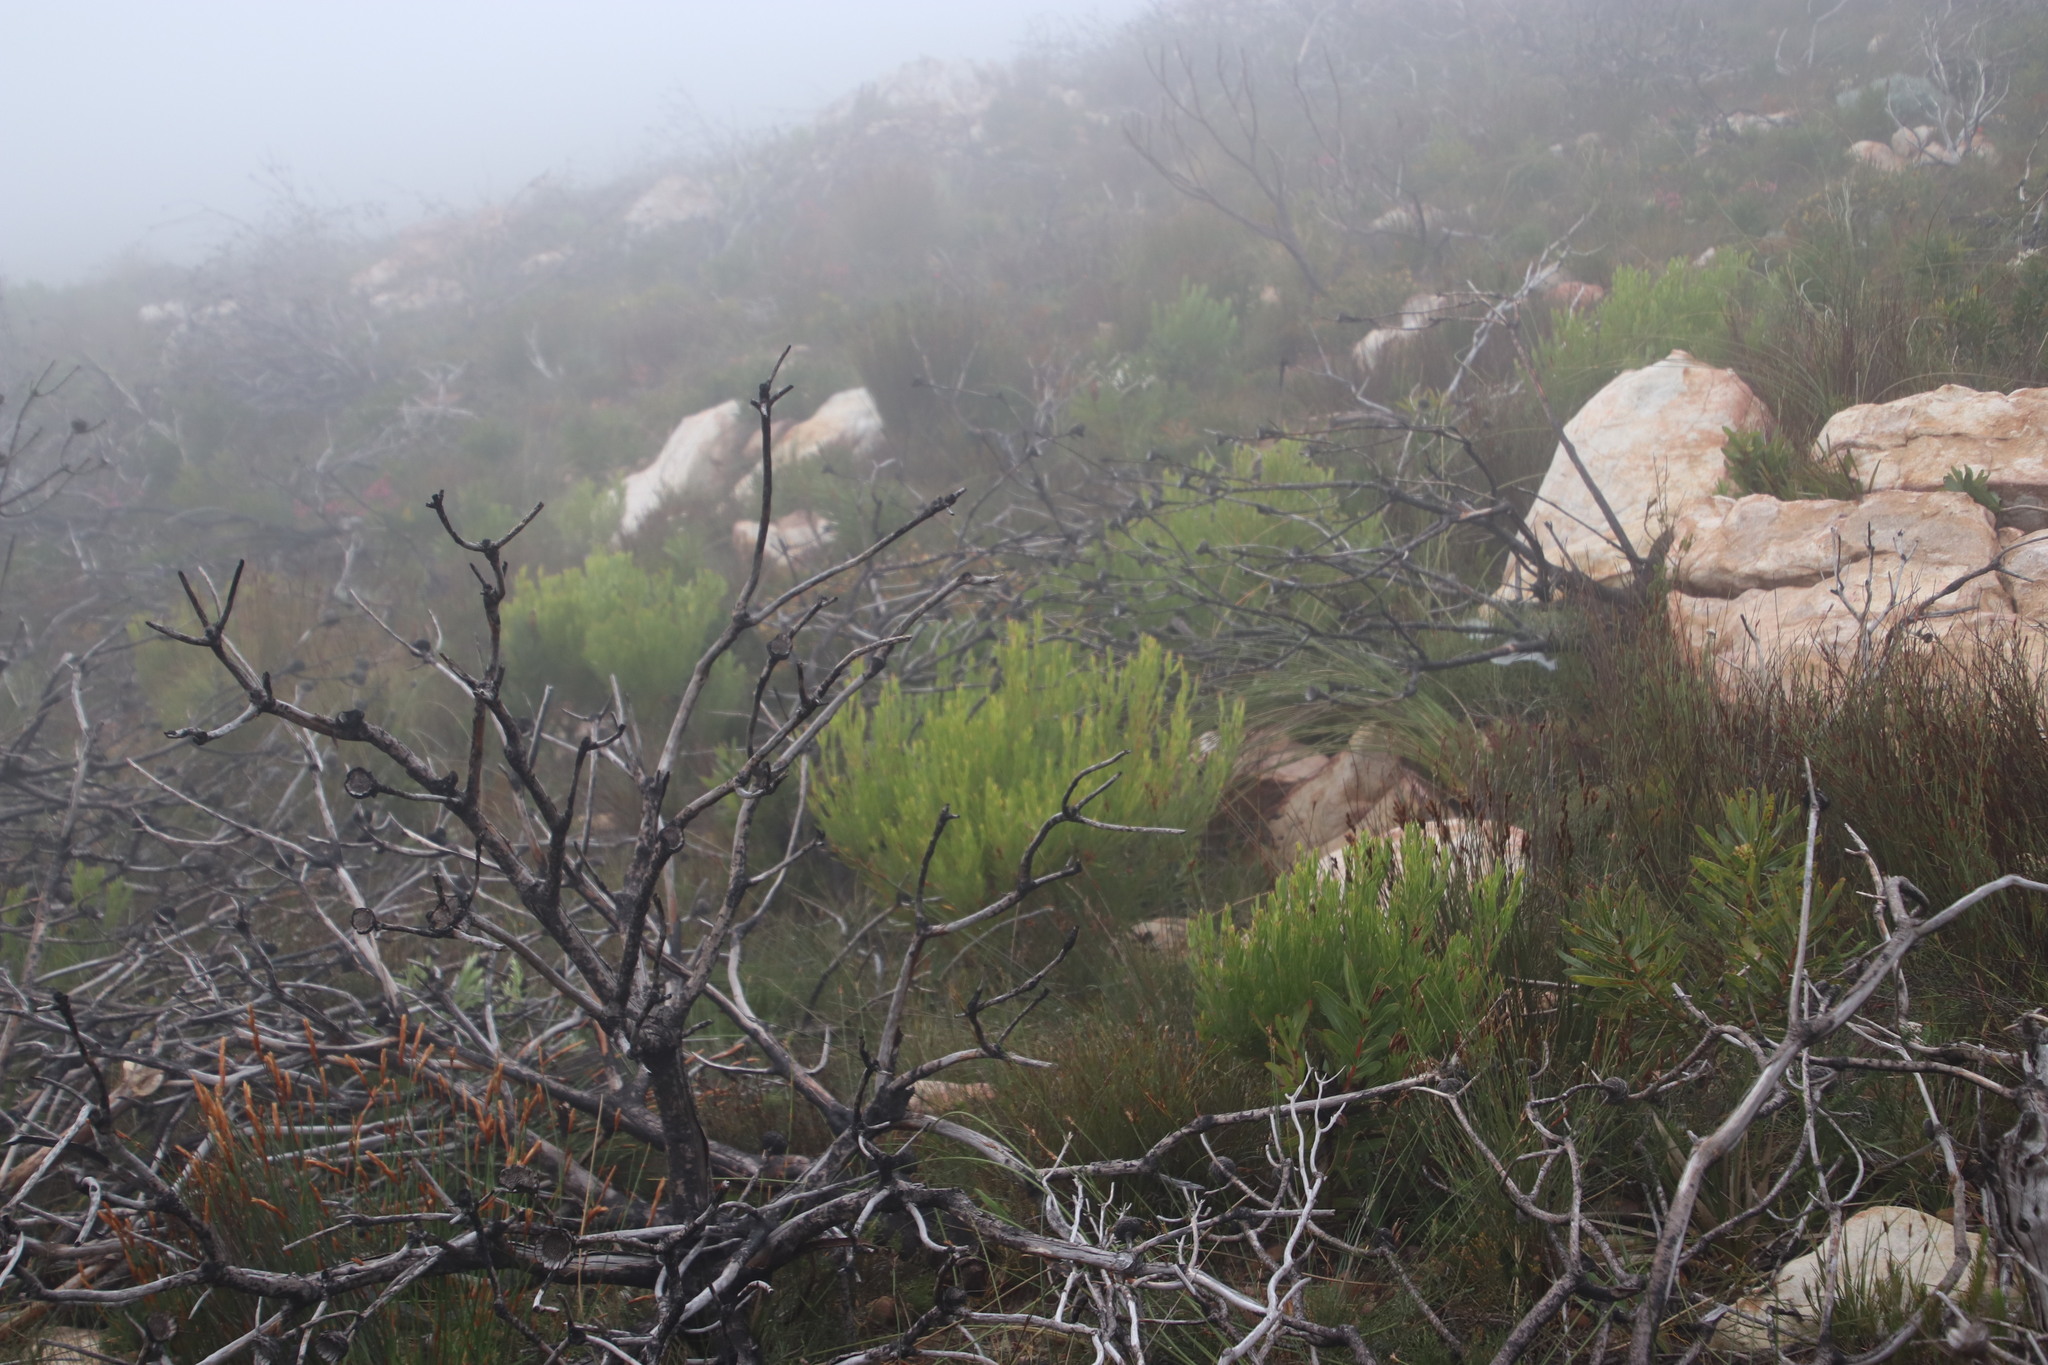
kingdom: Plantae
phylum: Tracheophyta
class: Magnoliopsida
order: Proteales
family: Proteaceae
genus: Leucadendron
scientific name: Leucadendron xanthoconus
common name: Sickle-leaf conebush
